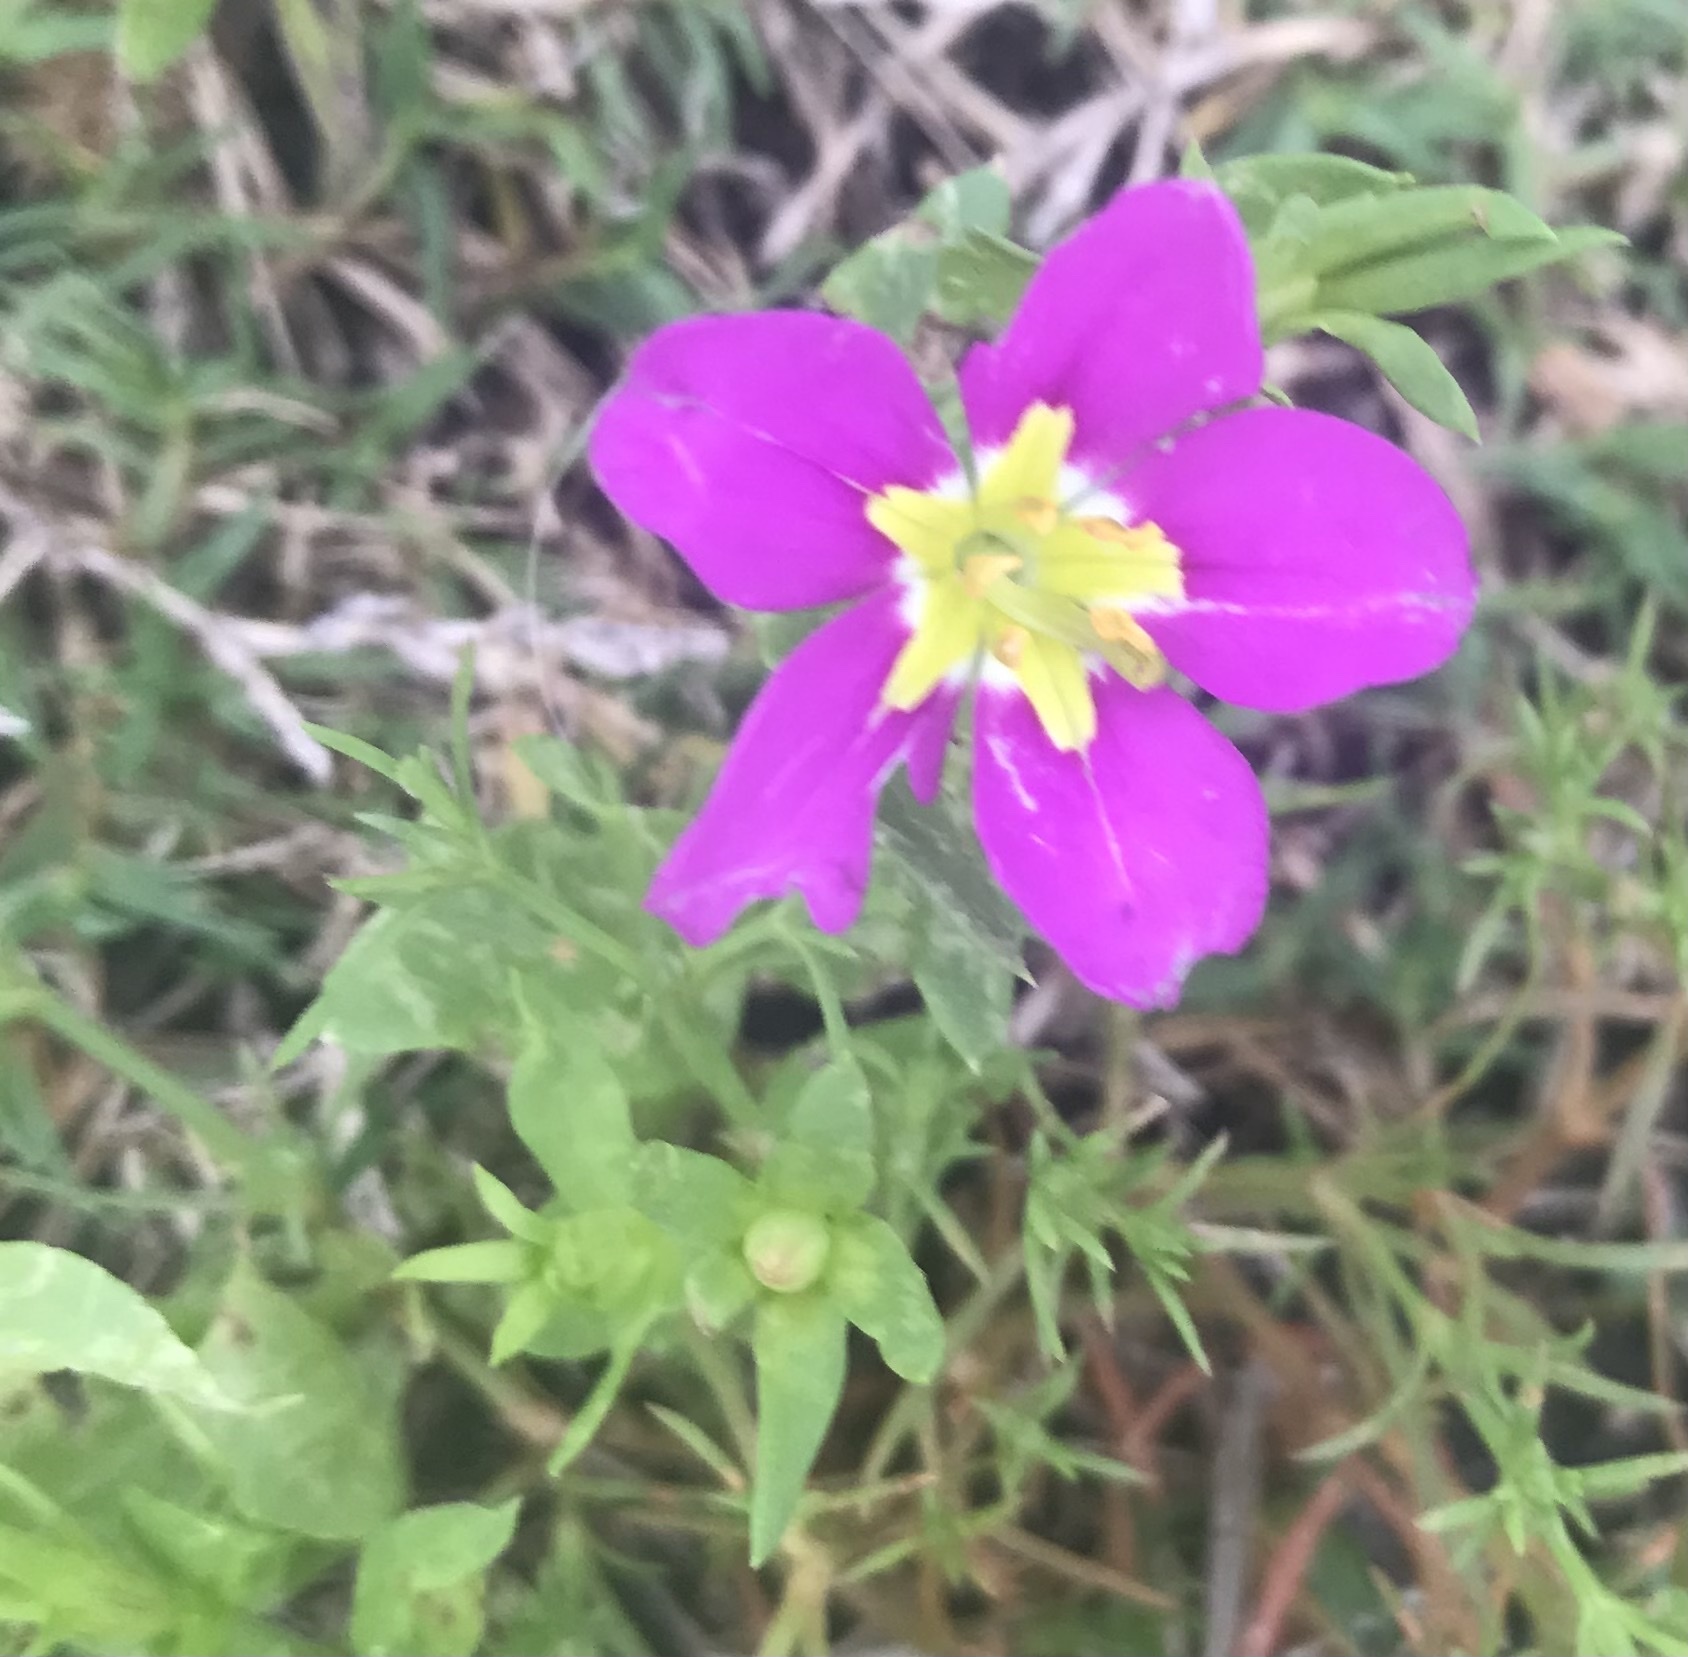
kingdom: Plantae
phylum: Tracheophyta
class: Magnoliopsida
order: Gentianales
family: Gentianaceae
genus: Sabatia
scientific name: Sabatia campestris
